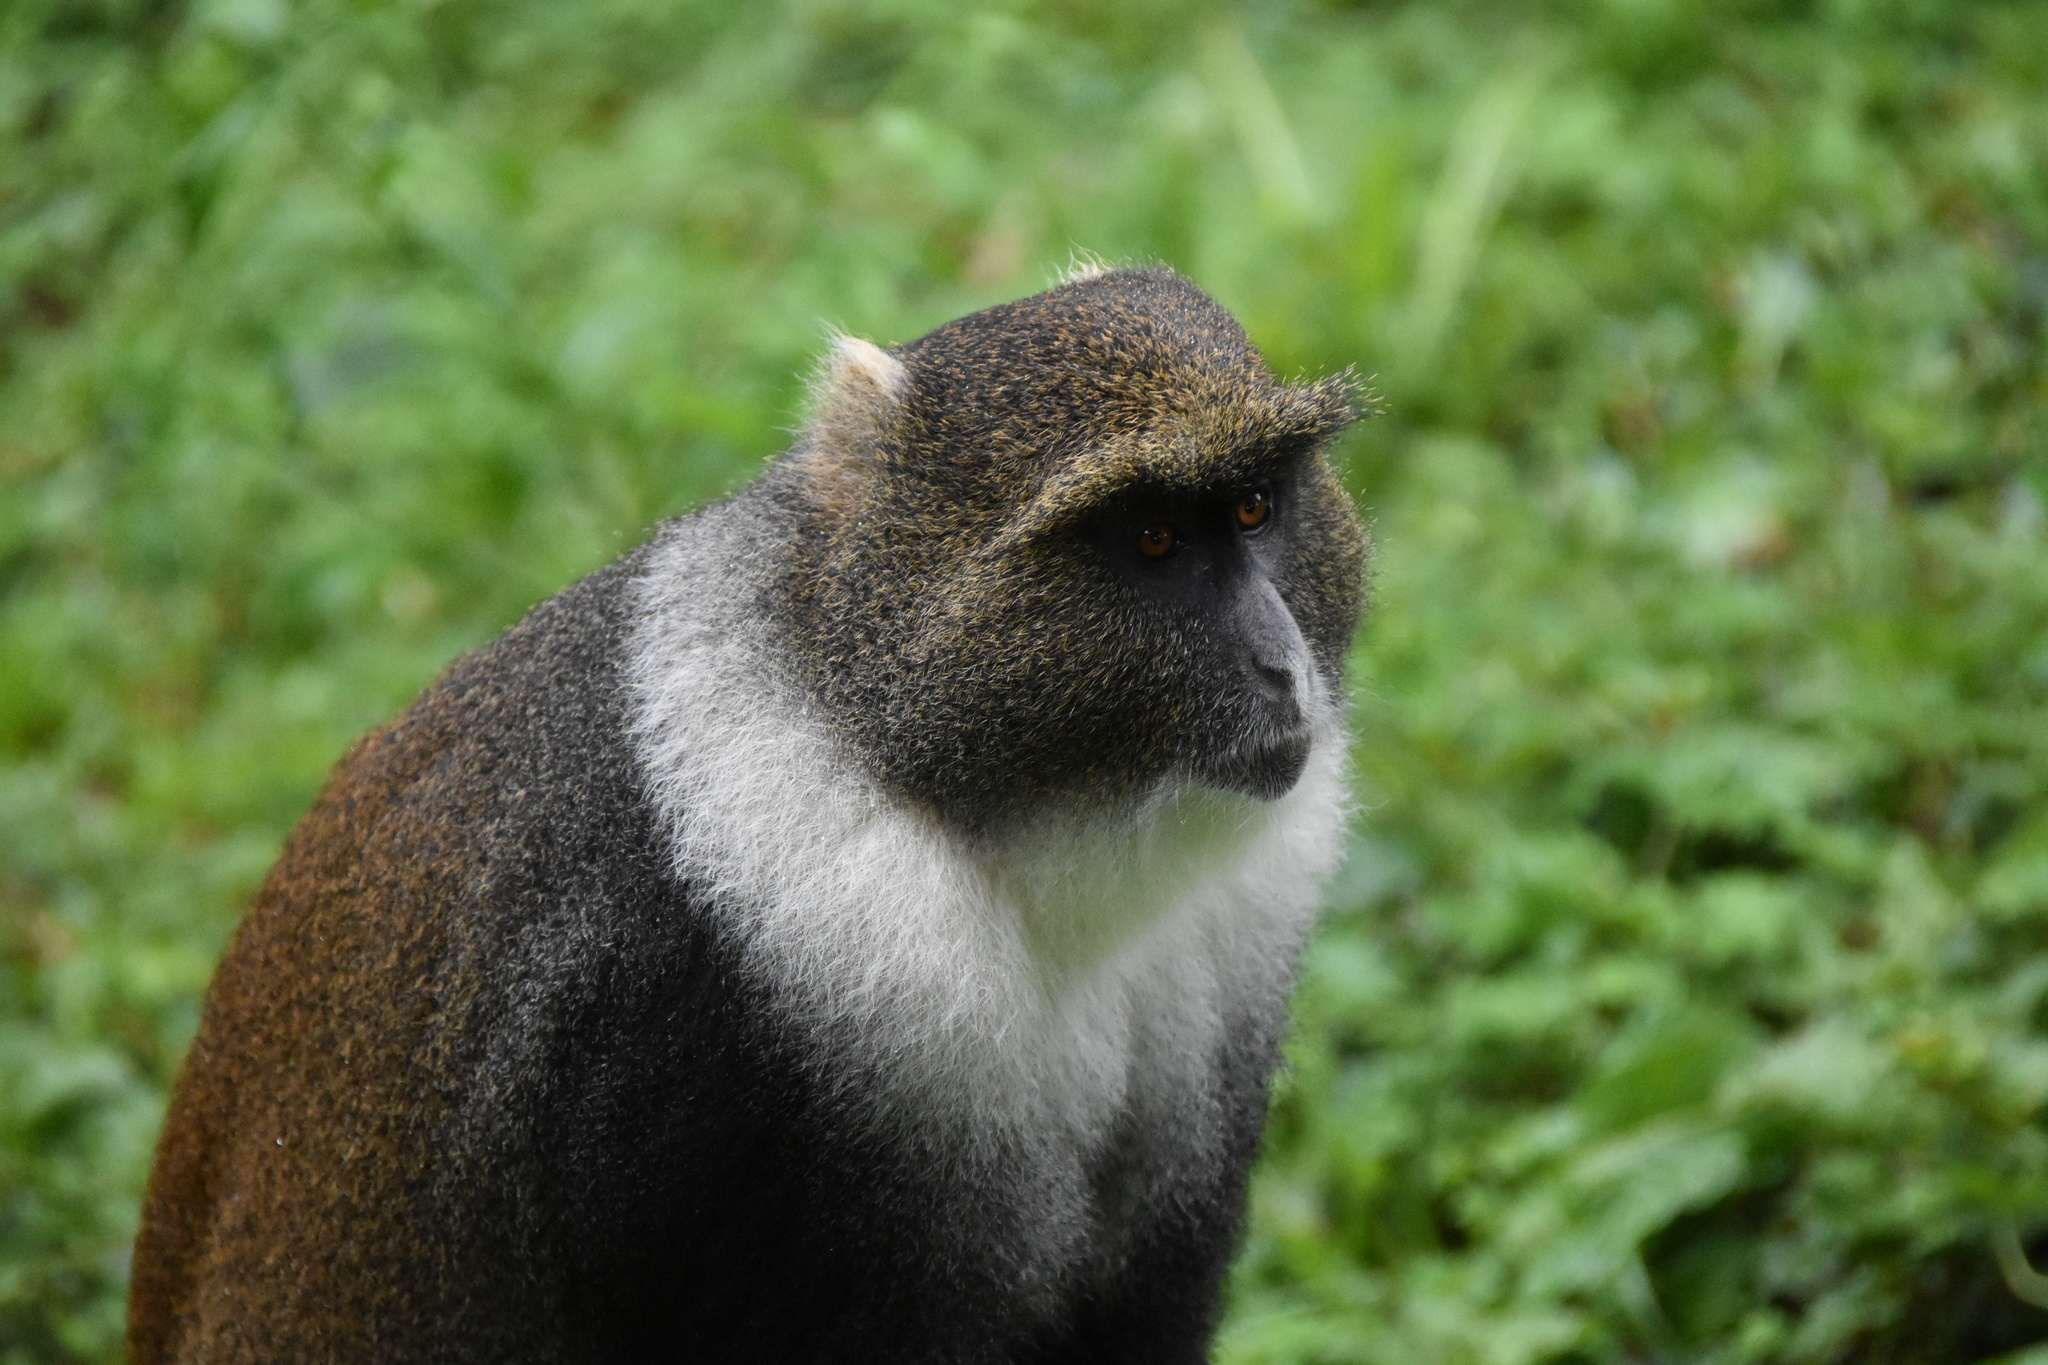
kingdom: Animalia
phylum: Chordata
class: Mammalia
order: Primates
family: Cercopithecidae
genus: Cercopithecus
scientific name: Cercopithecus mitis
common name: Blue monkey
